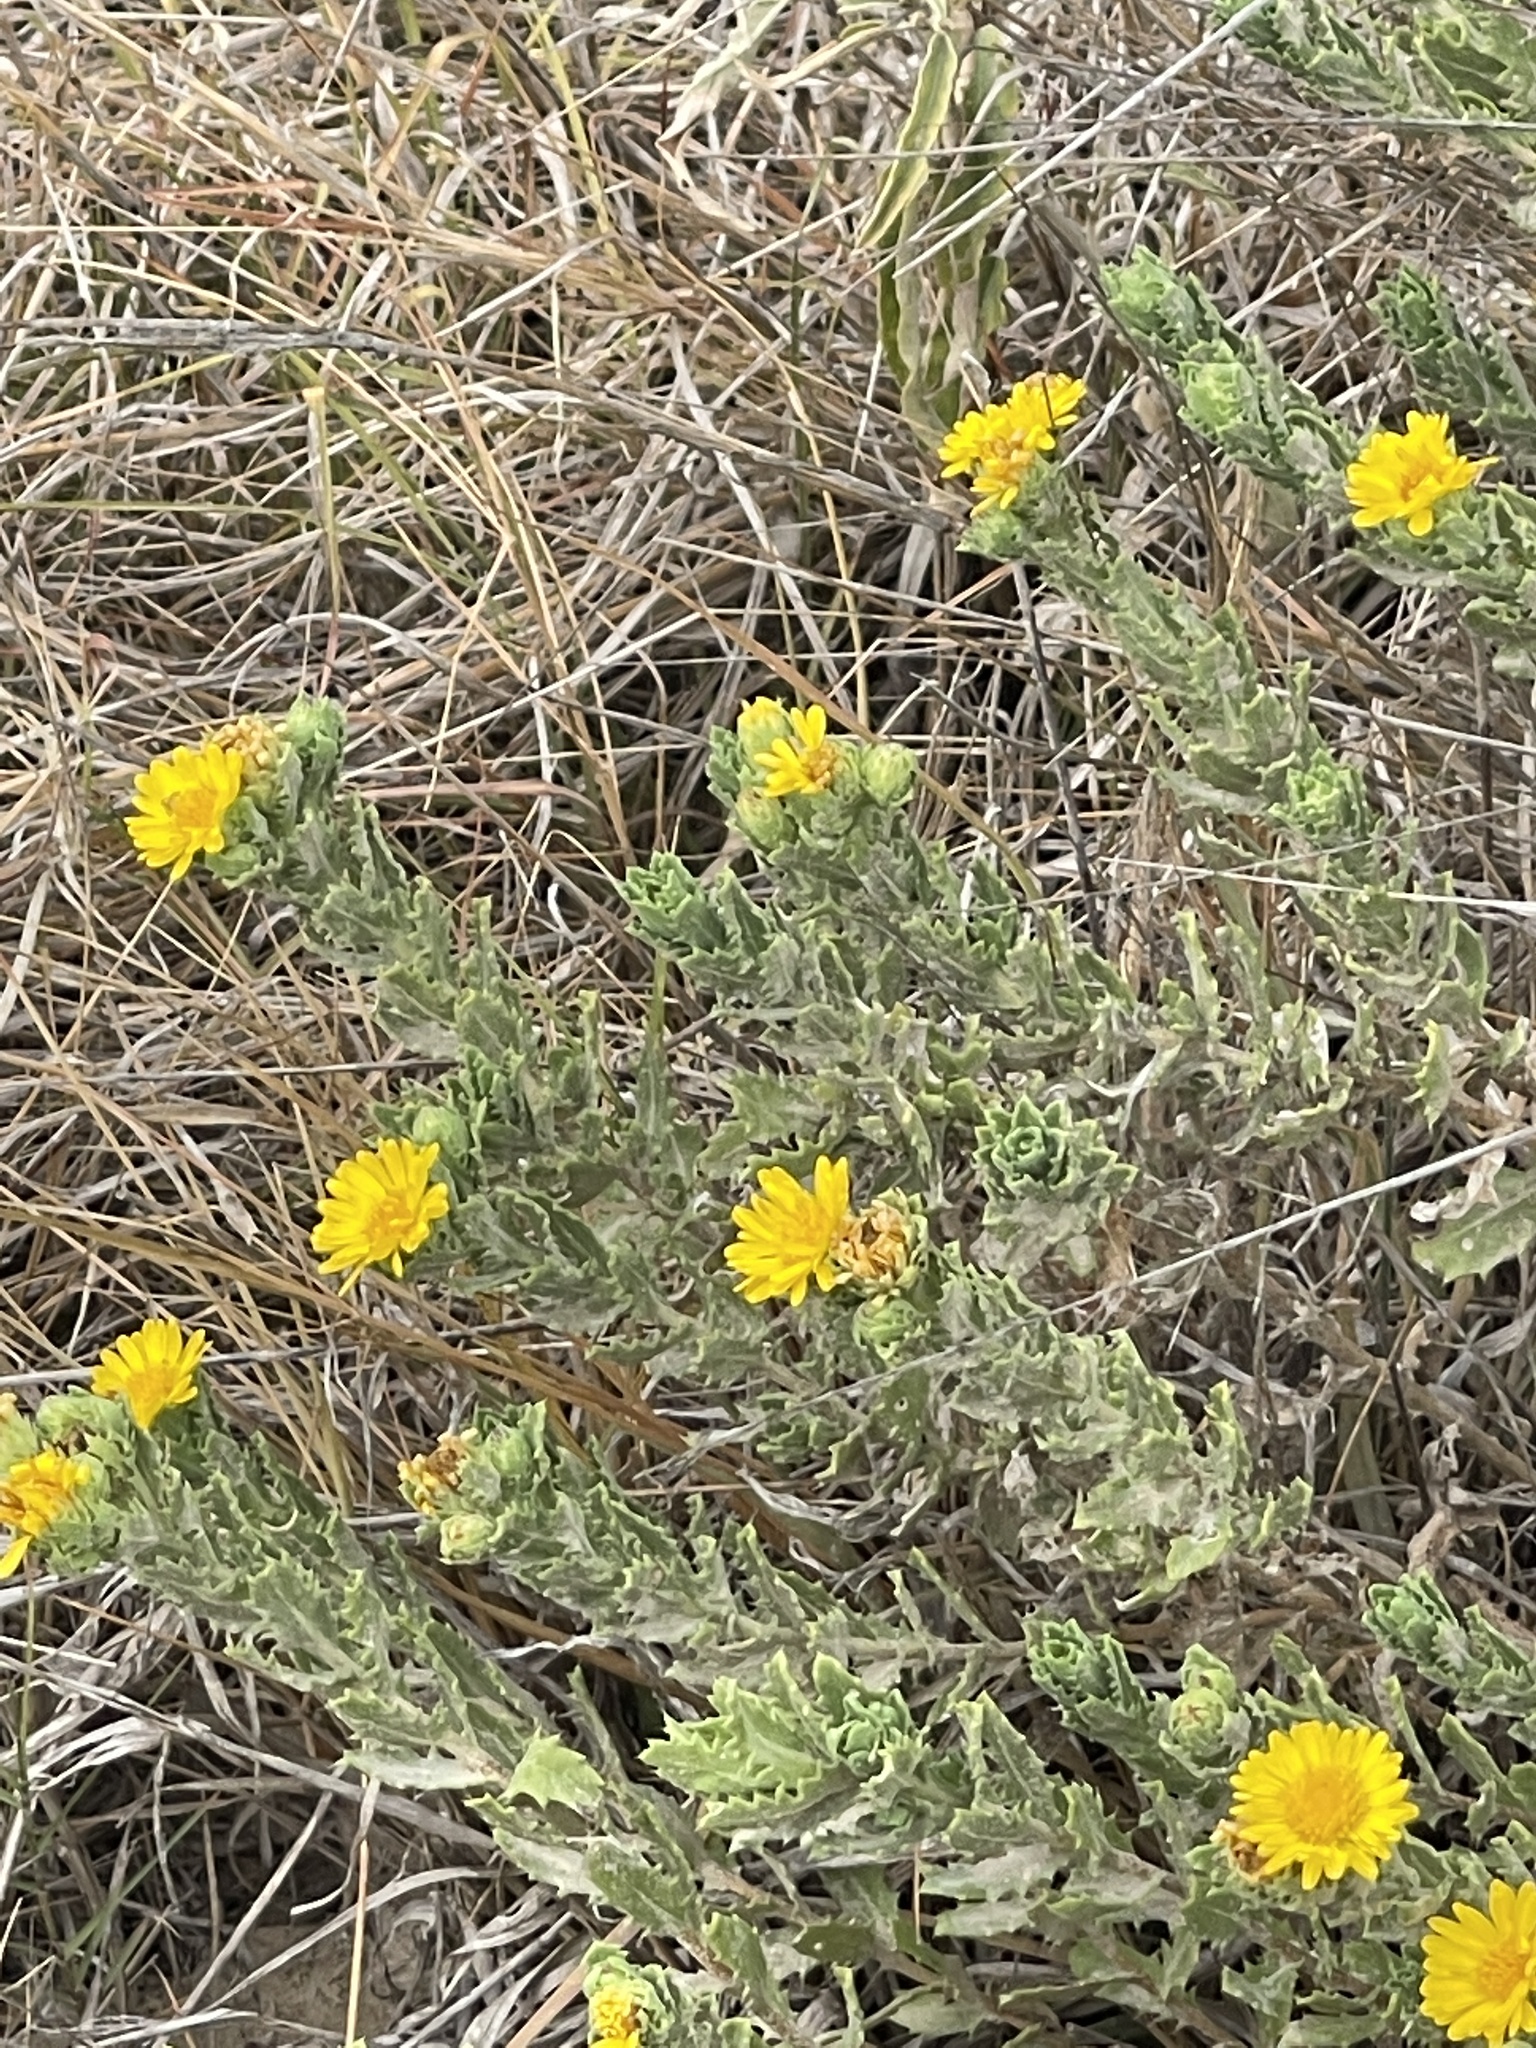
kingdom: Plantae
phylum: Tracheophyta
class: Magnoliopsida
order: Asterales
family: Asteraceae
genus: Rayjacksonia
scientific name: Rayjacksonia phyllocephala
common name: Gulf coast camphor daisy
